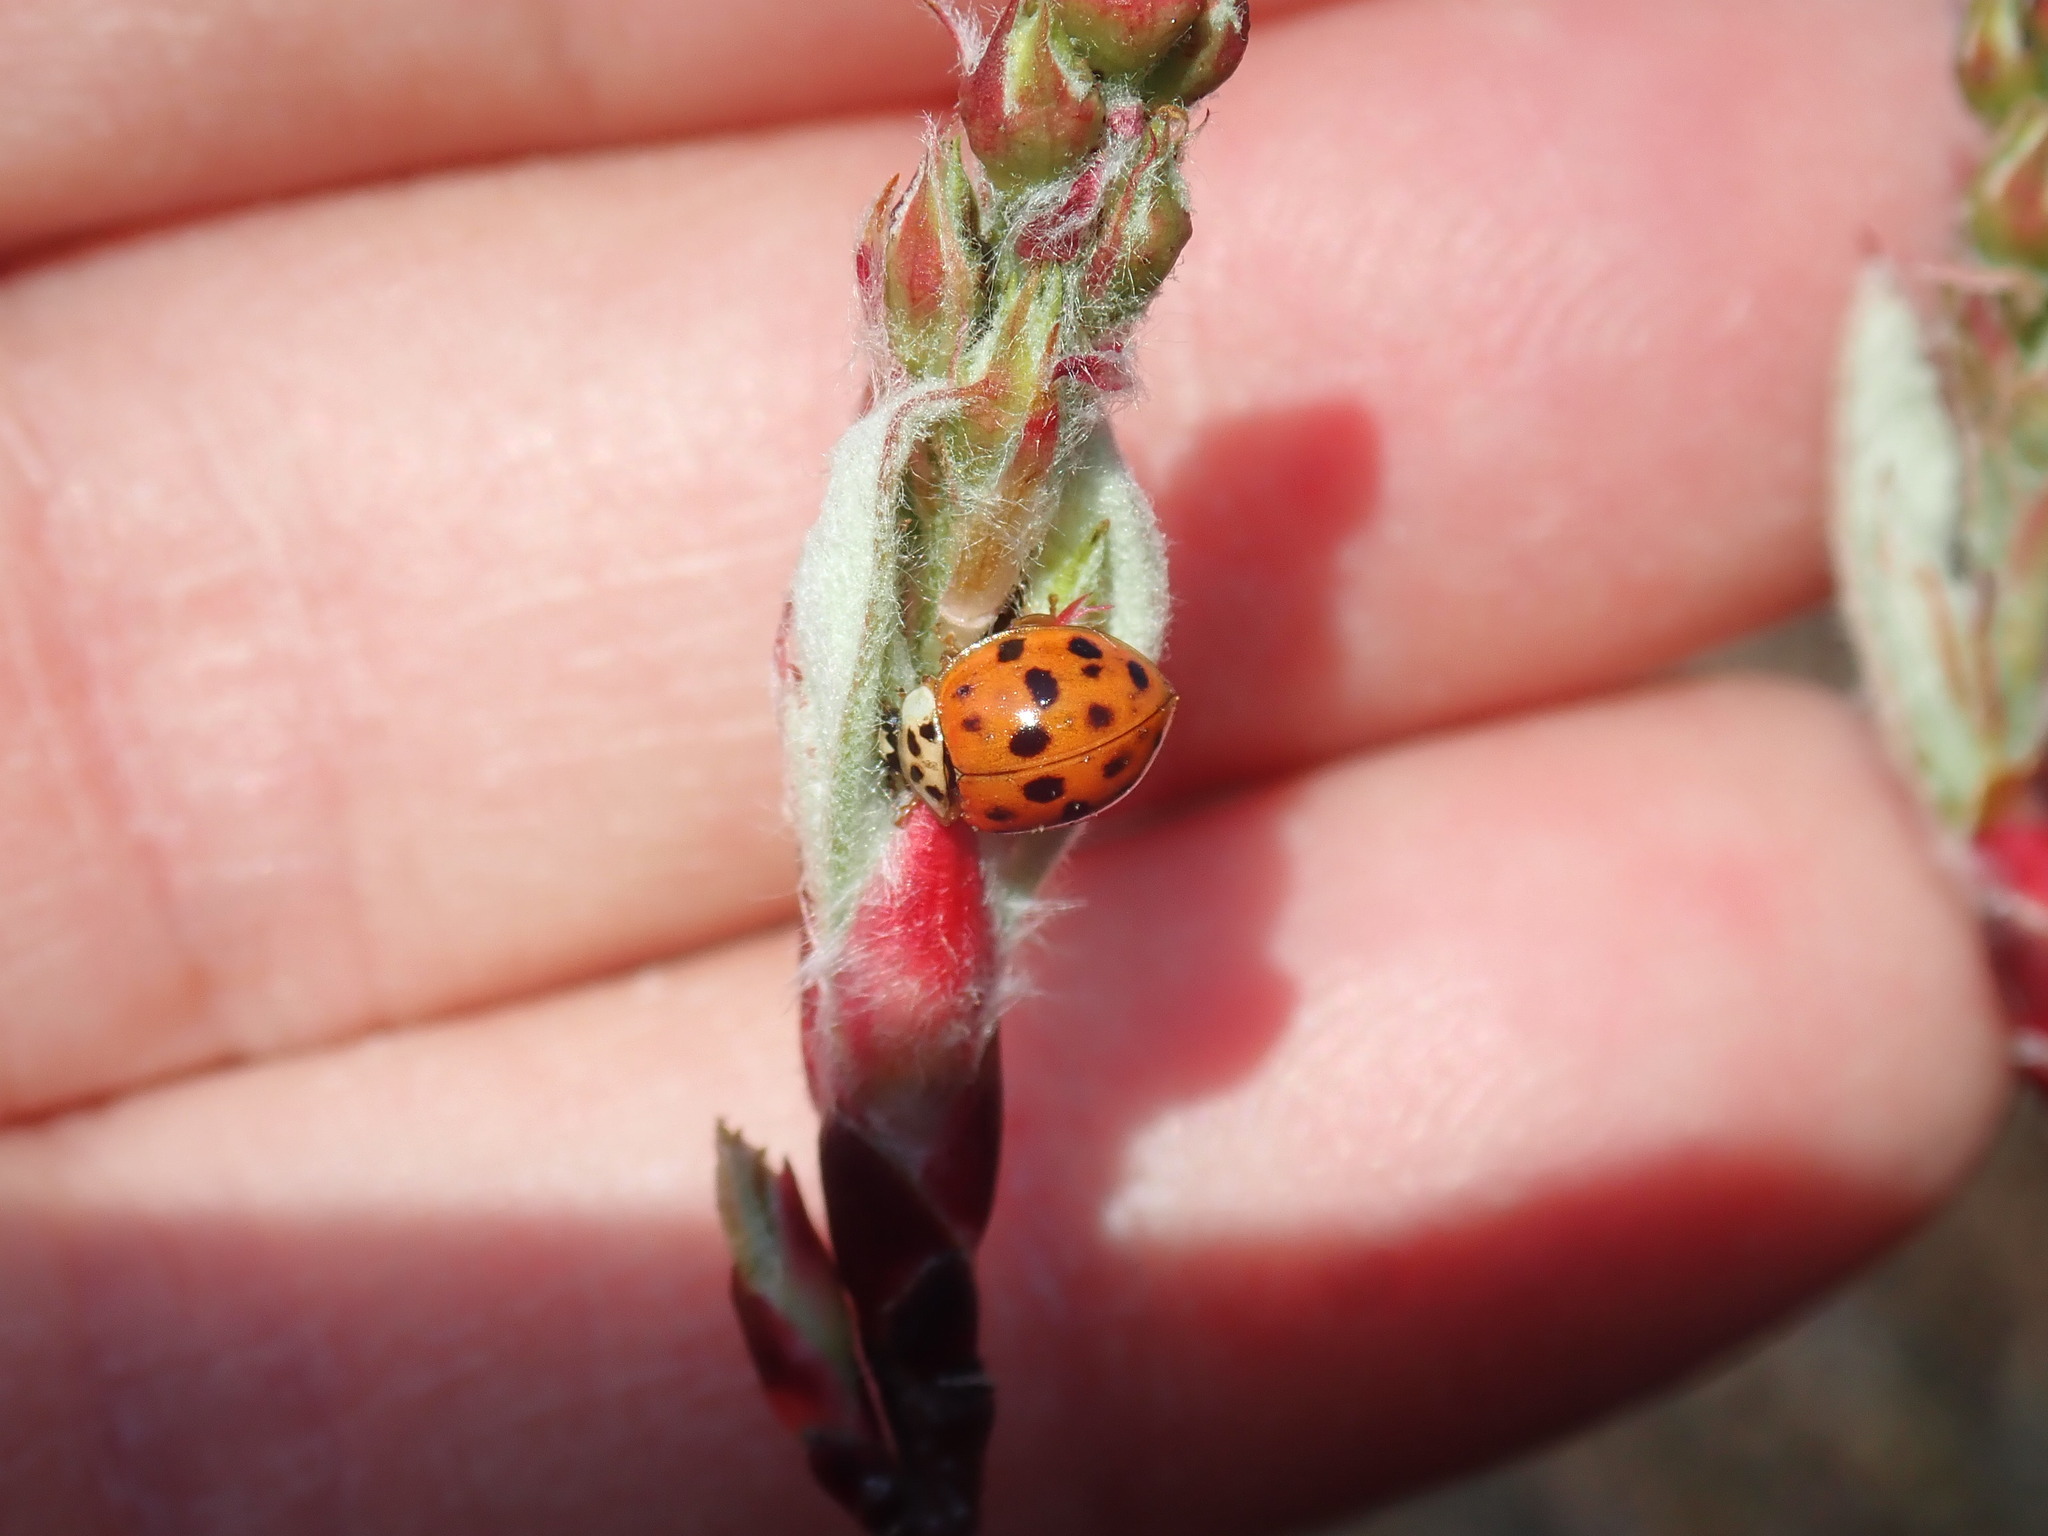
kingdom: Animalia
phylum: Arthropoda
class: Insecta
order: Coleoptera
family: Coccinellidae
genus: Harmonia
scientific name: Harmonia axyridis
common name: Harlequin ladybird
